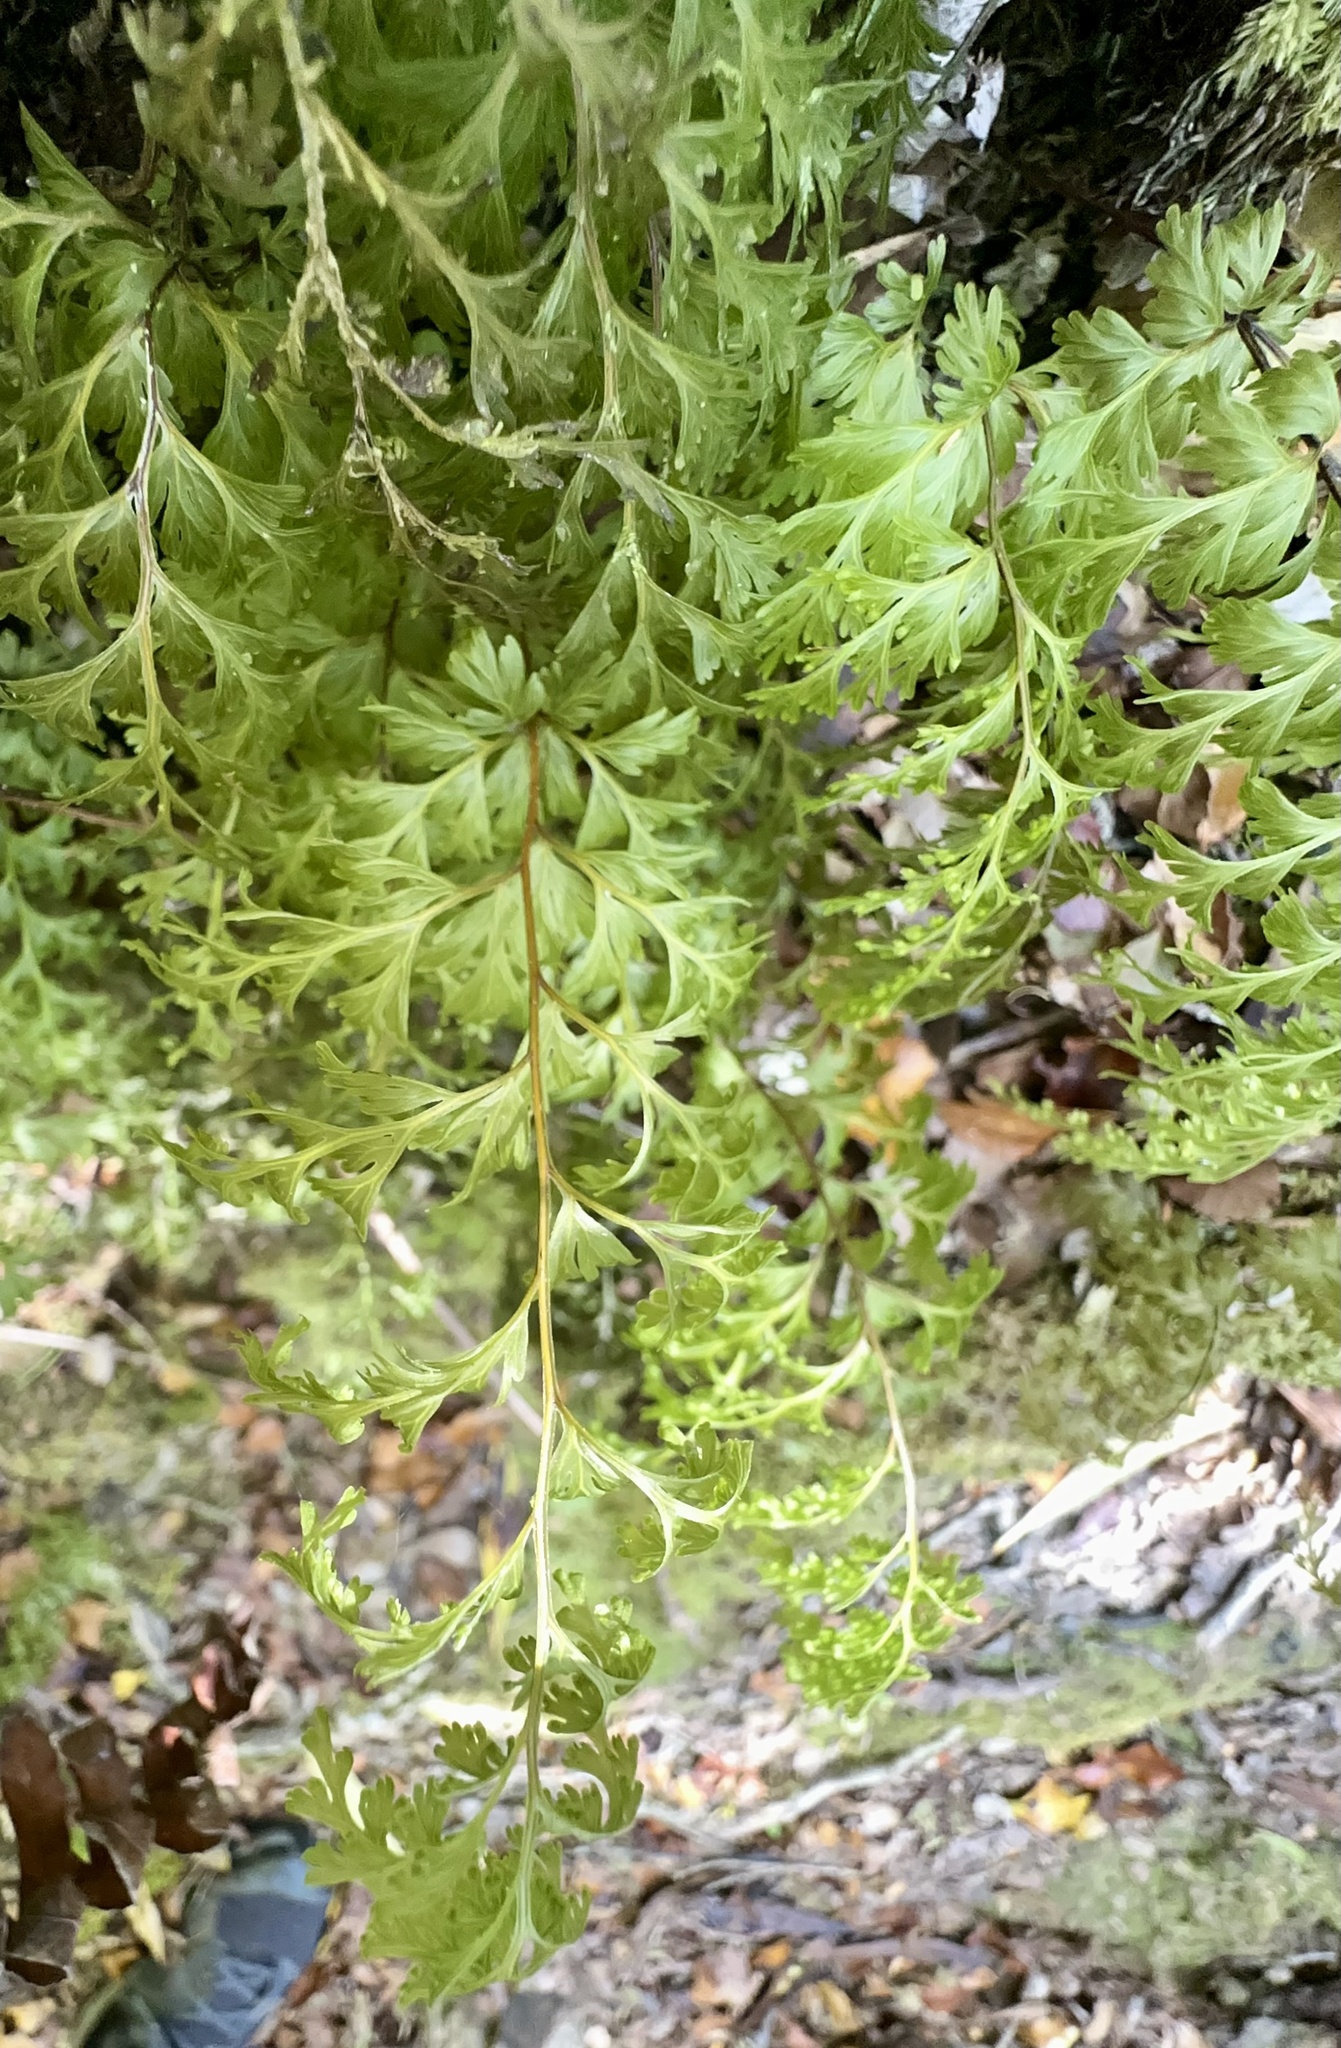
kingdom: Plantae
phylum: Tracheophyta
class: Polypodiopsida
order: Hymenophyllales
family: Hymenophyllaceae
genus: Hymenophyllum
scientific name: Hymenophyllum demissum
